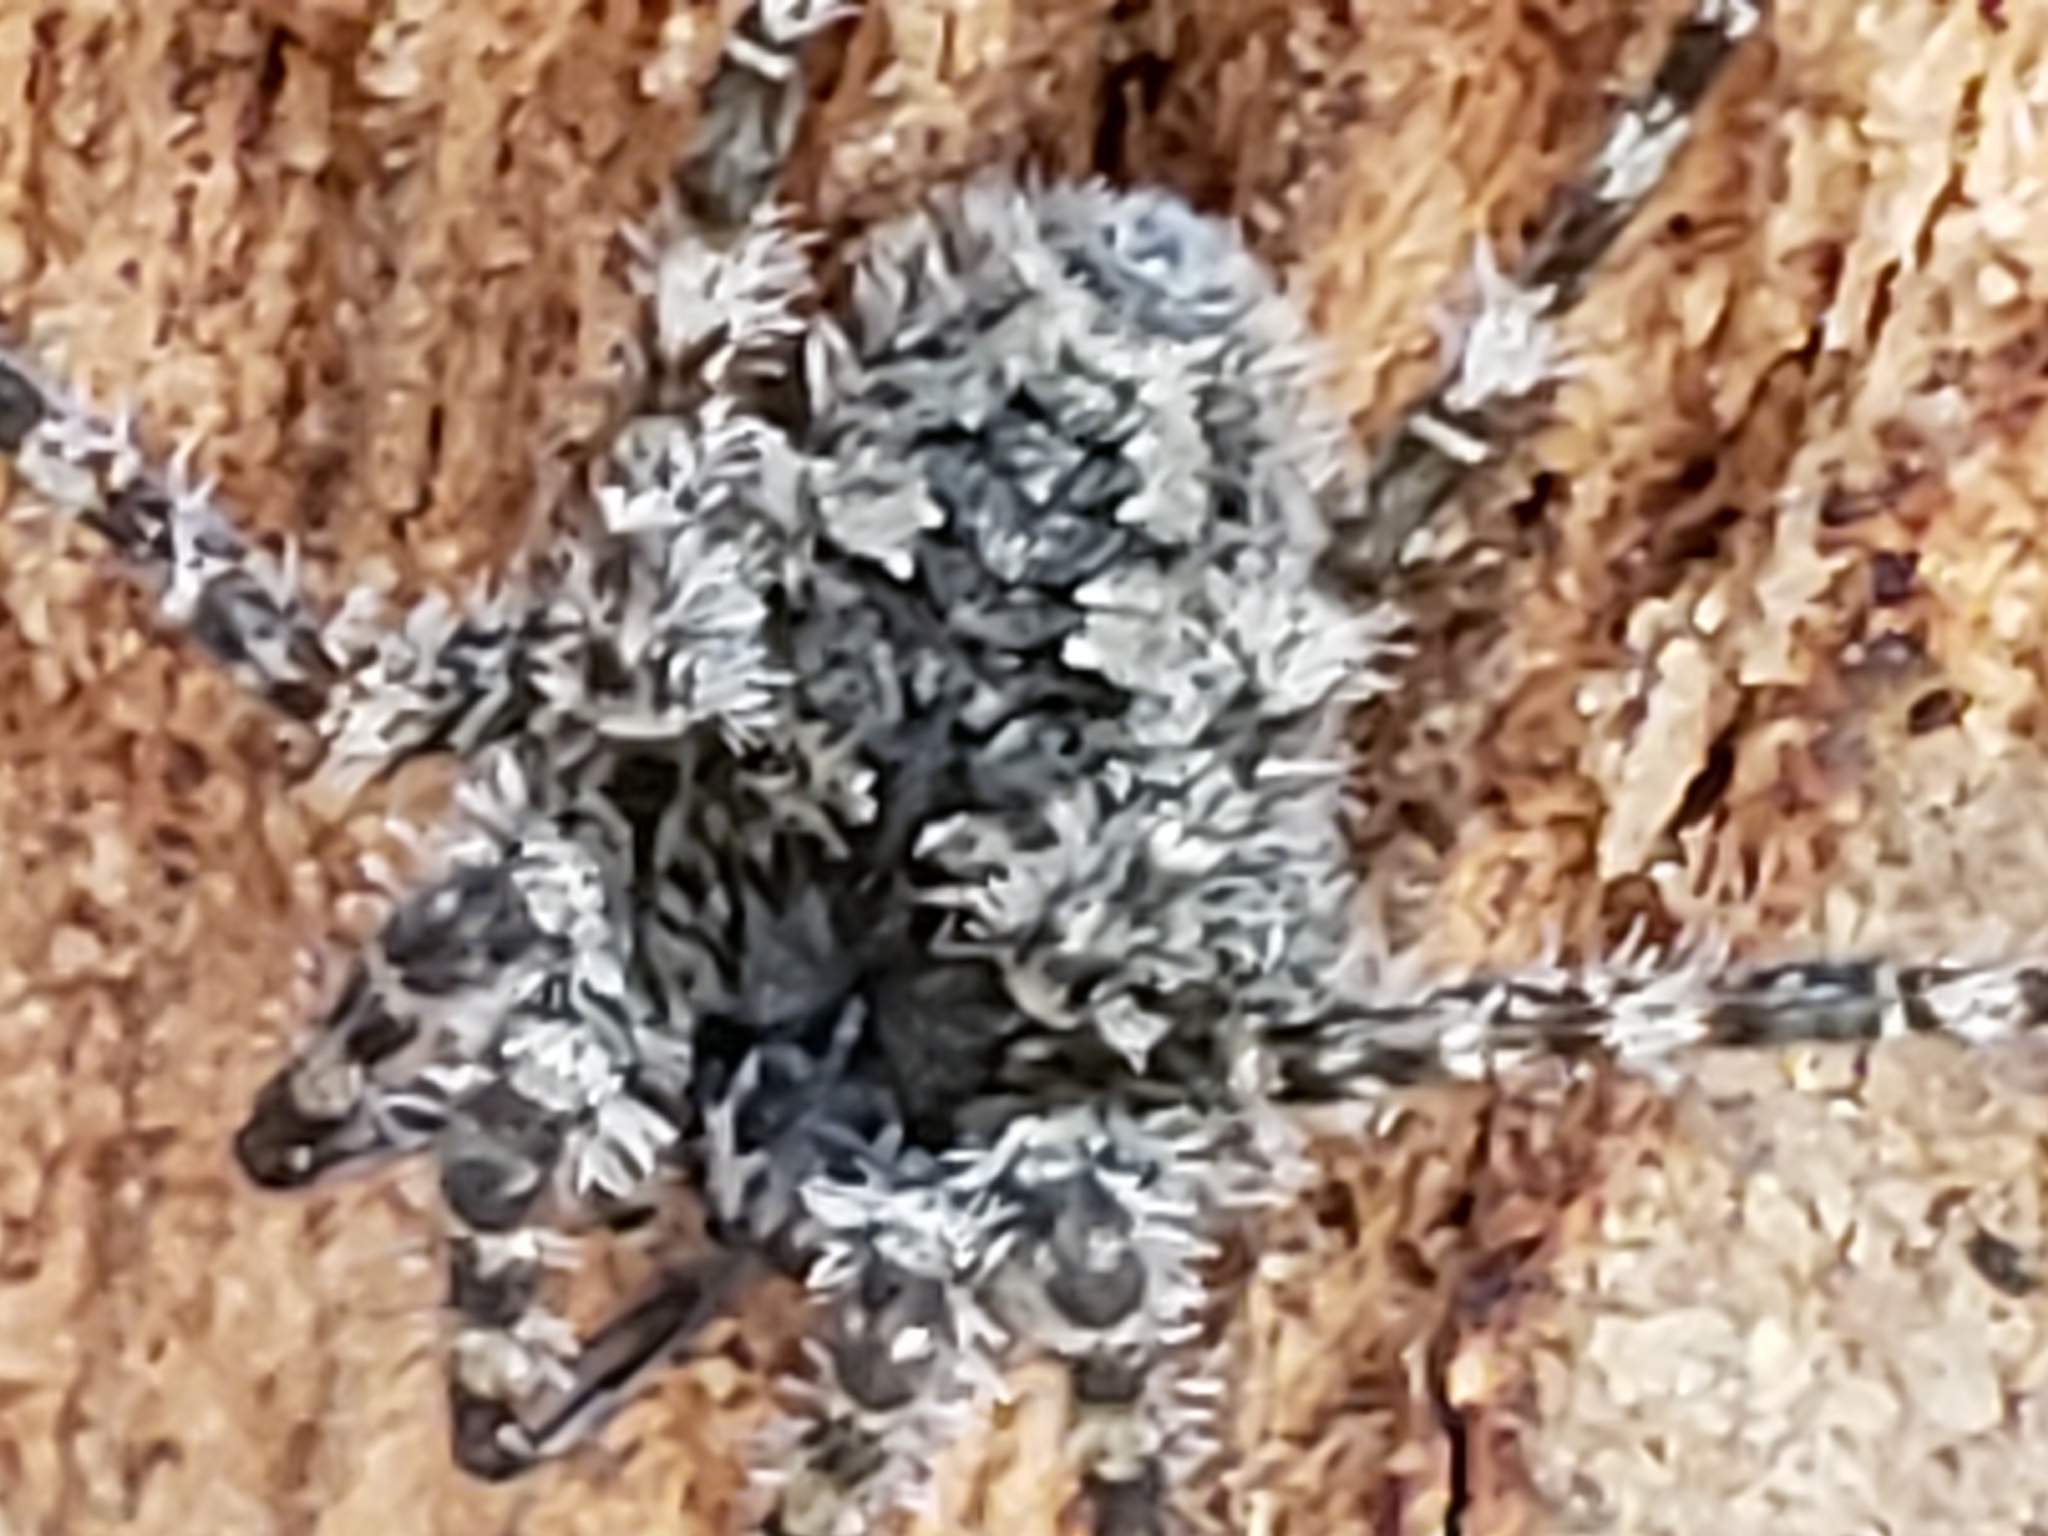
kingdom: Animalia
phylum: Arthropoda
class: Arachnida
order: Araneae
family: Pisauridae
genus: Dolomedes
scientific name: Dolomedes albineus
